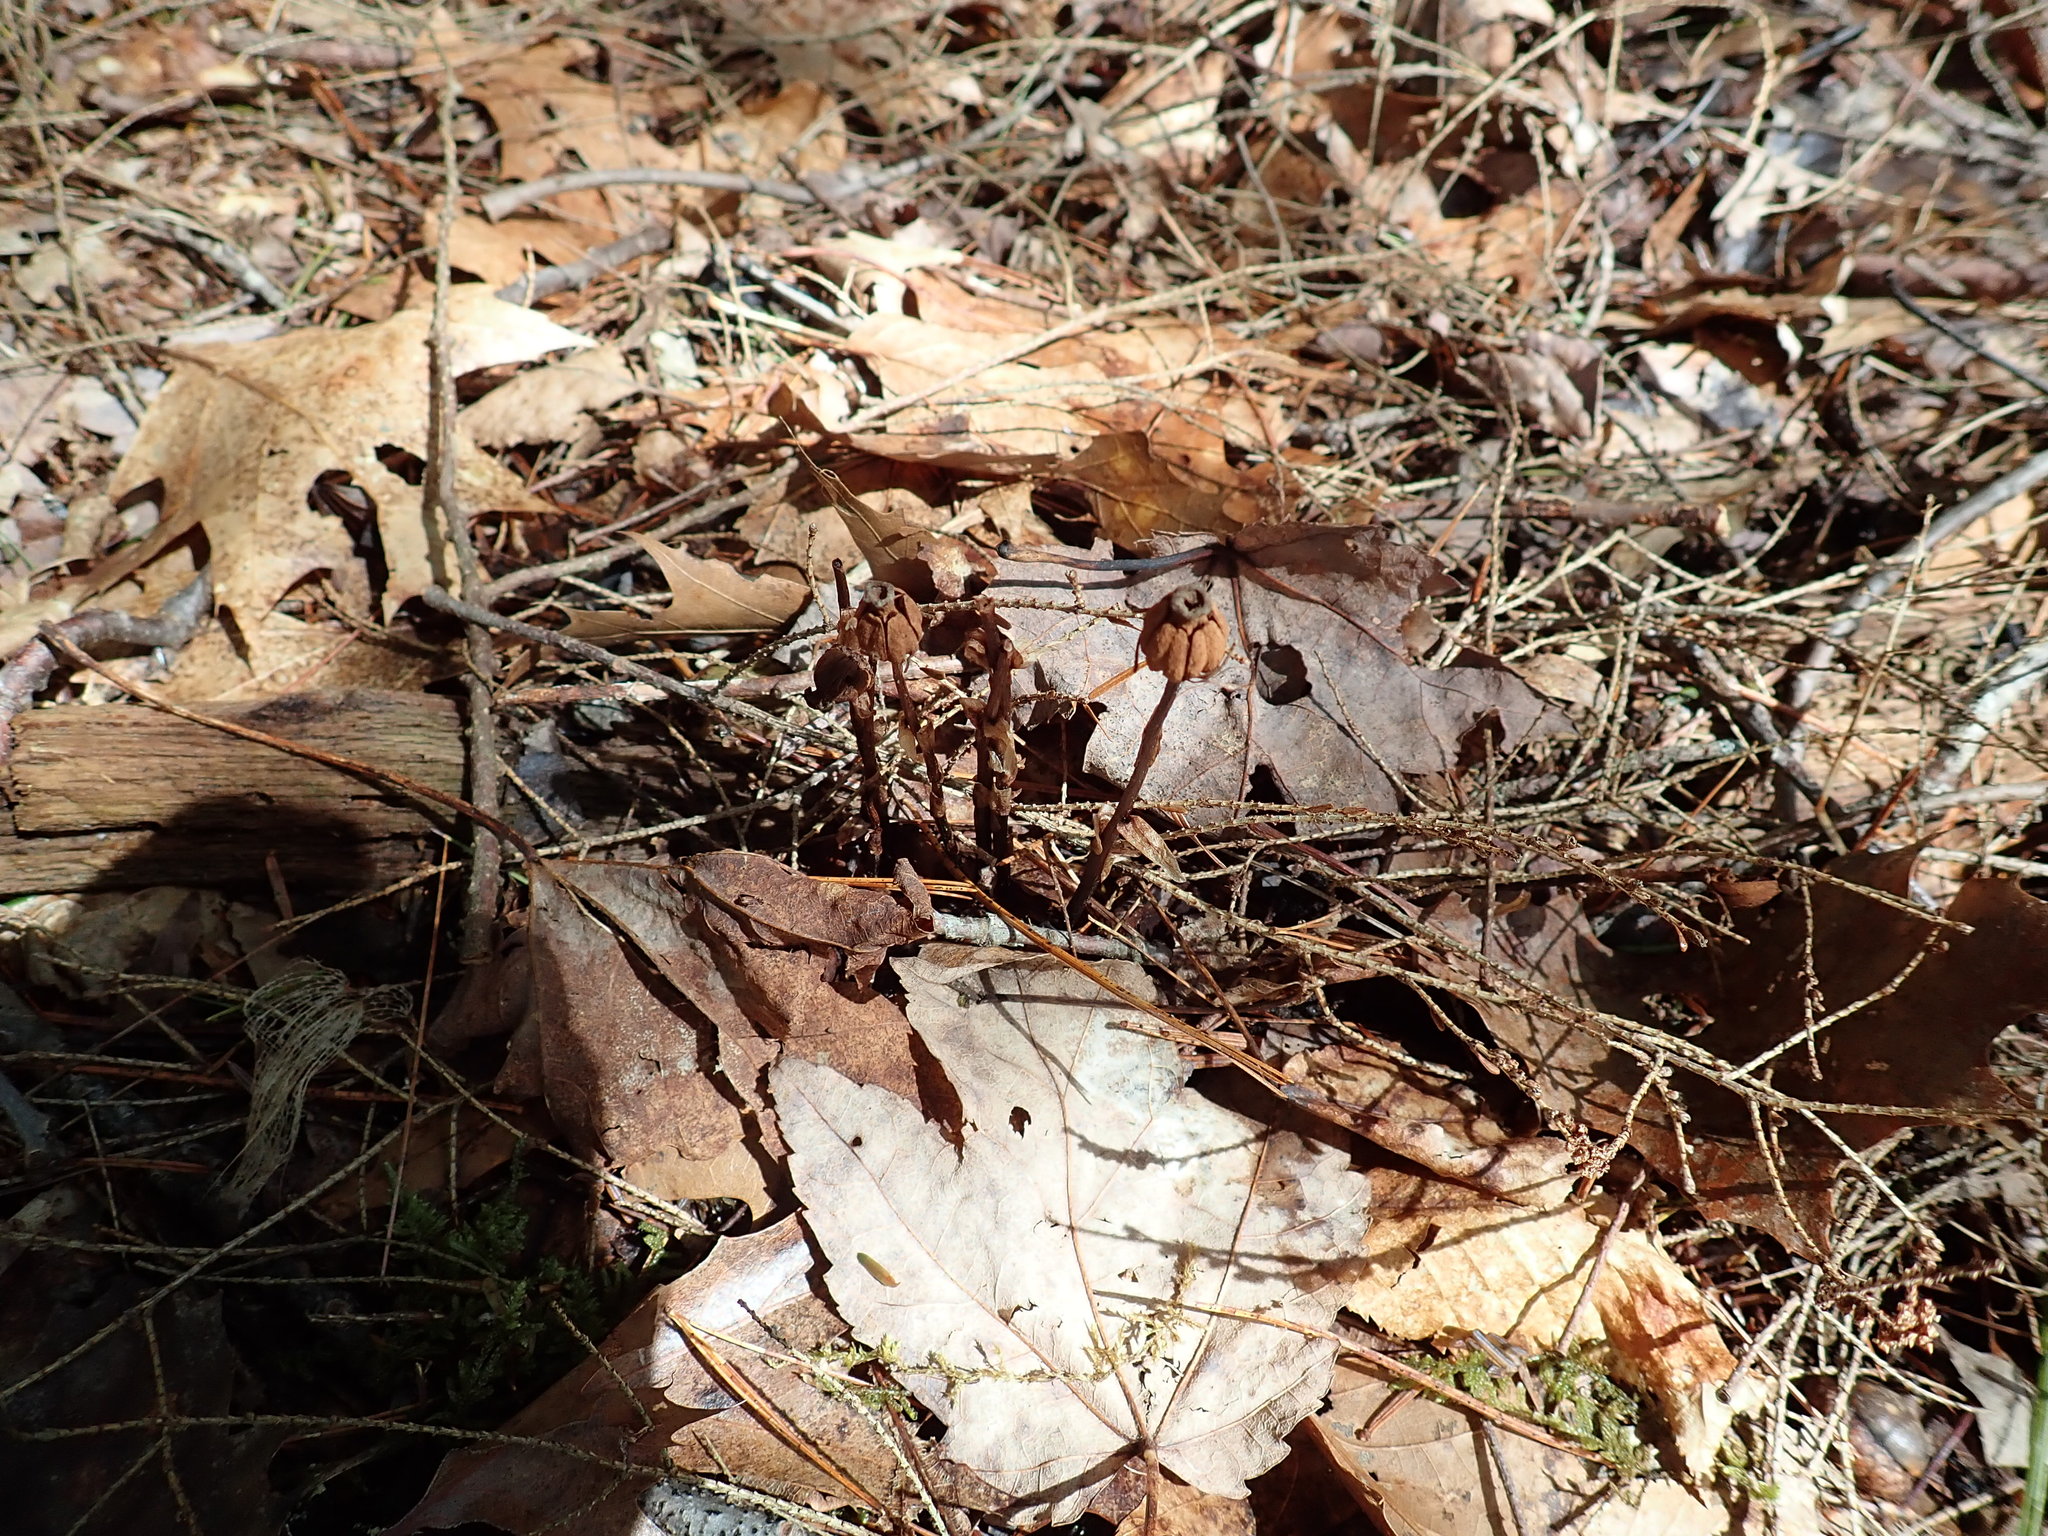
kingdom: Plantae
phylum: Tracheophyta
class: Magnoliopsida
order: Ericales
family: Ericaceae
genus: Monotropa
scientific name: Monotropa uniflora
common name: Convulsion root
